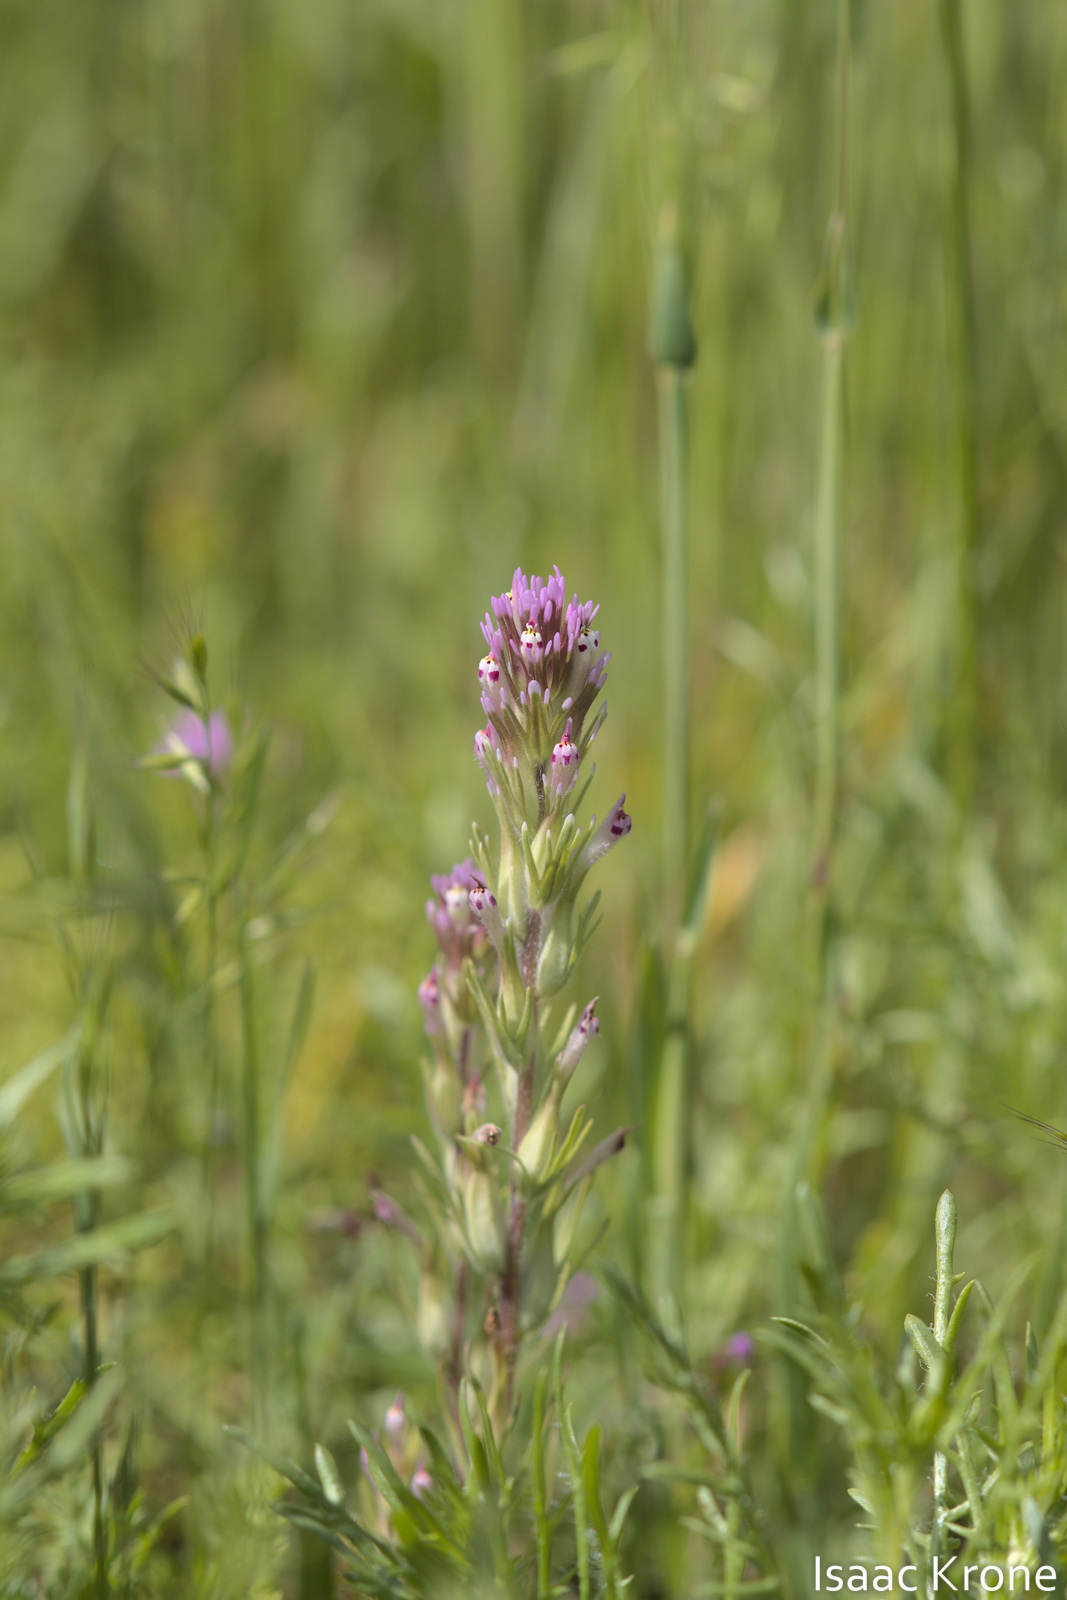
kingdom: Plantae
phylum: Tracheophyta
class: Magnoliopsida
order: Lamiales
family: Orobanchaceae
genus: Castilleja
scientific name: Castilleja brevistyla
